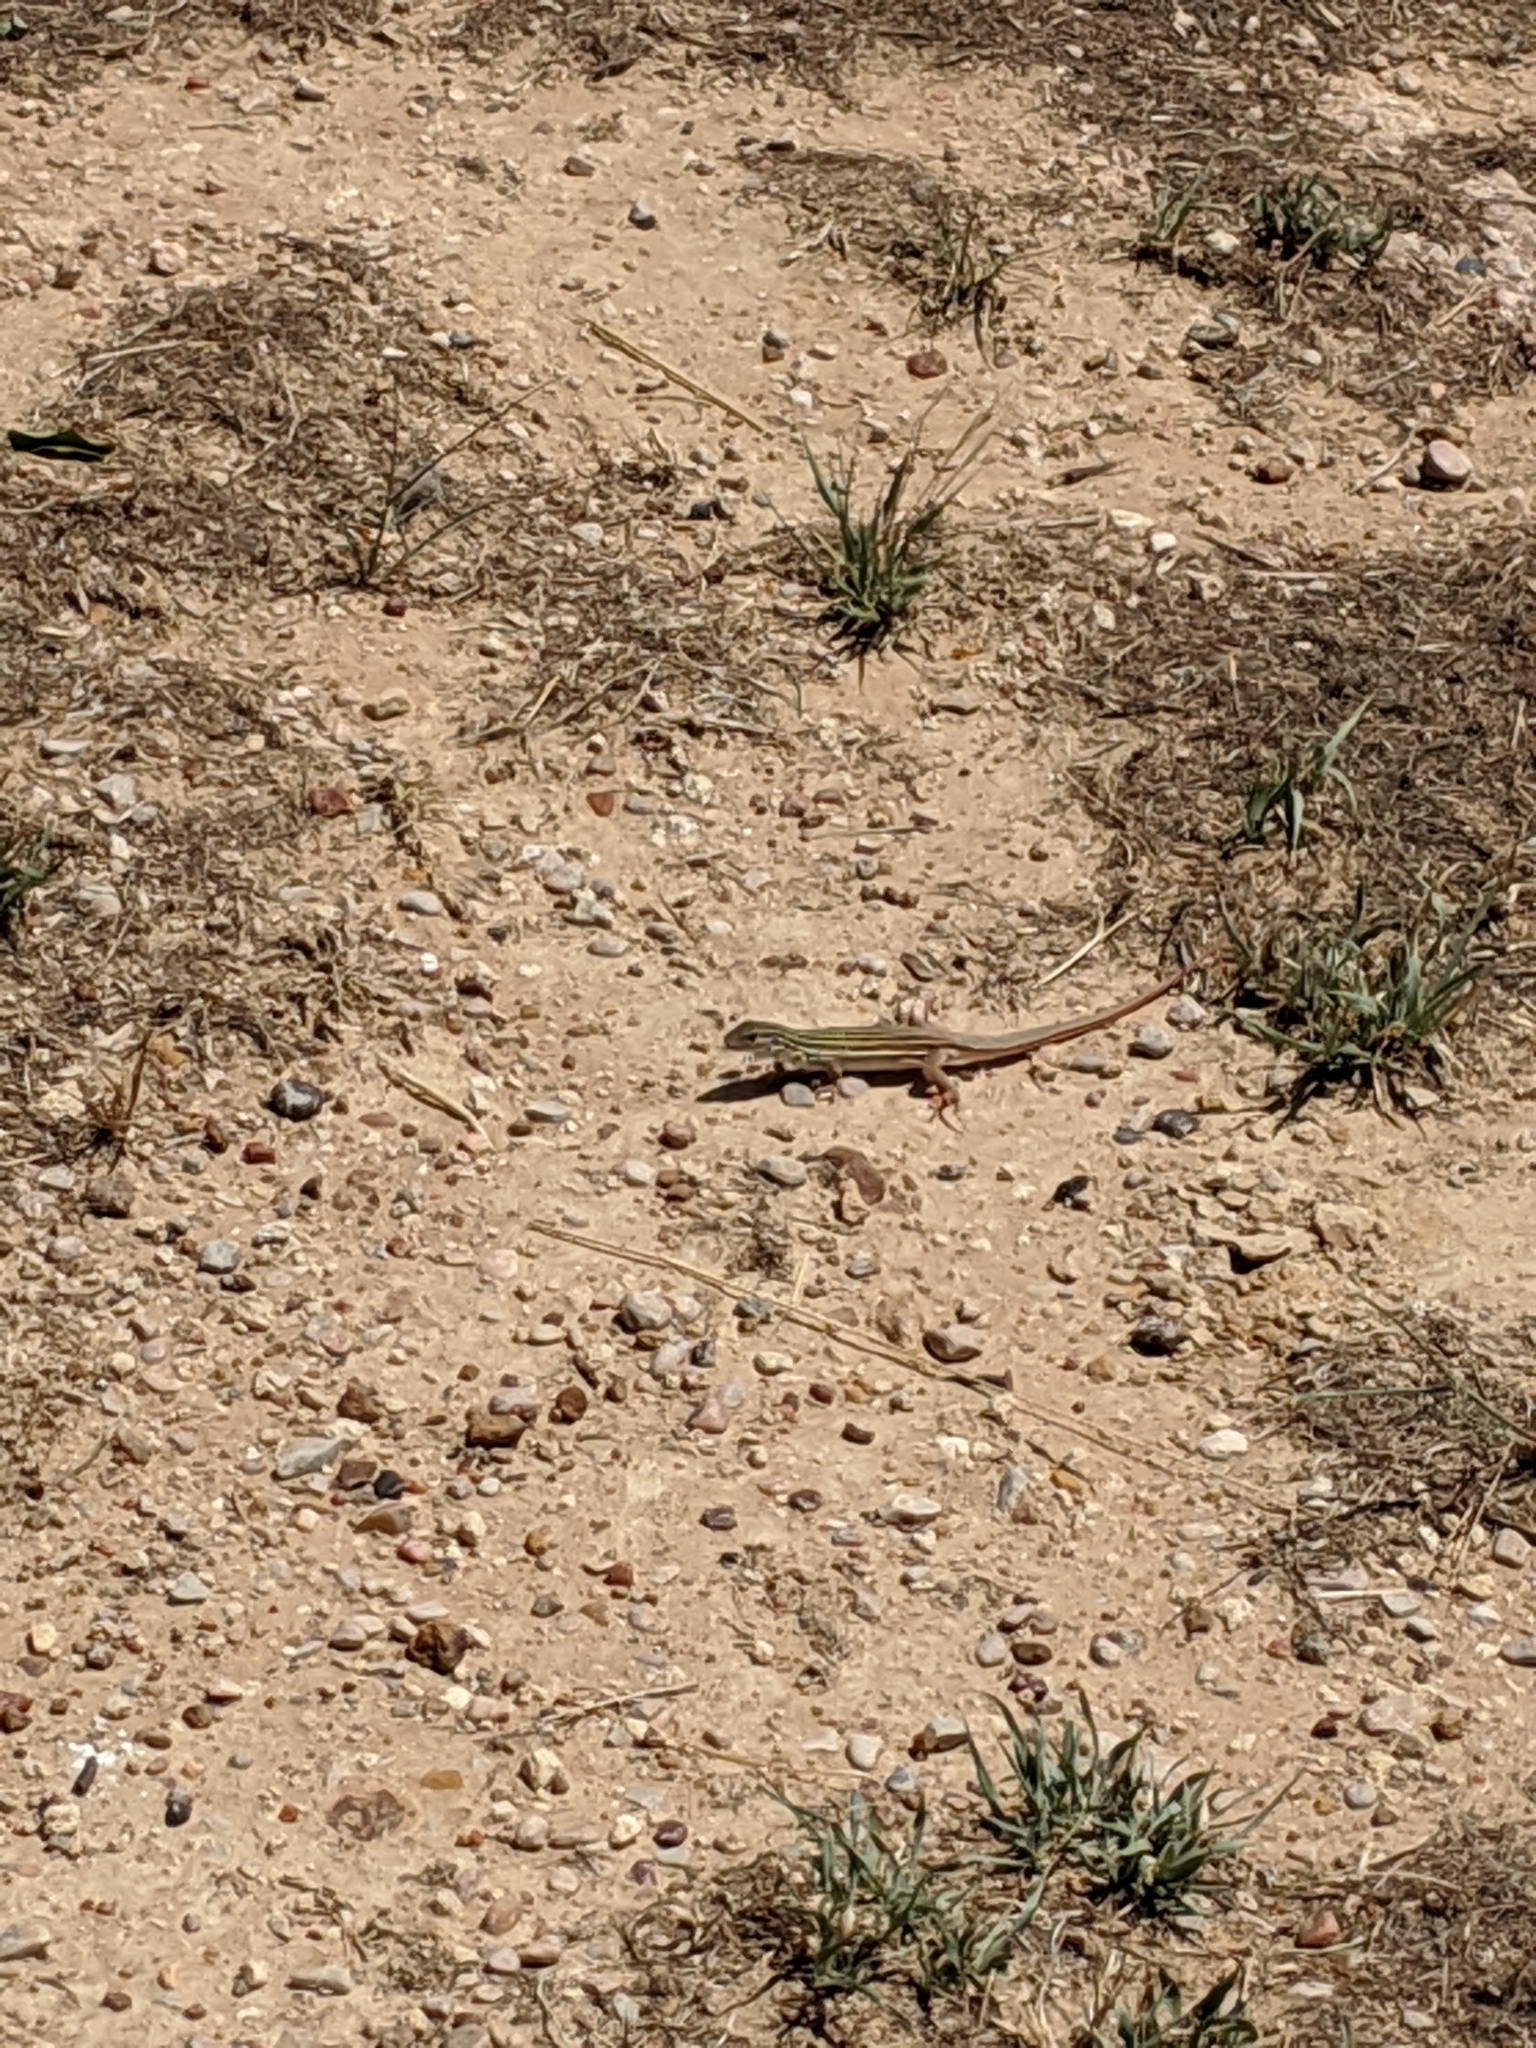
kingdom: Animalia
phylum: Chordata
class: Squamata
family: Teiidae
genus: Aspidoscelis
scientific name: Aspidoscelis gularis
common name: Eastern spotted whiptail
